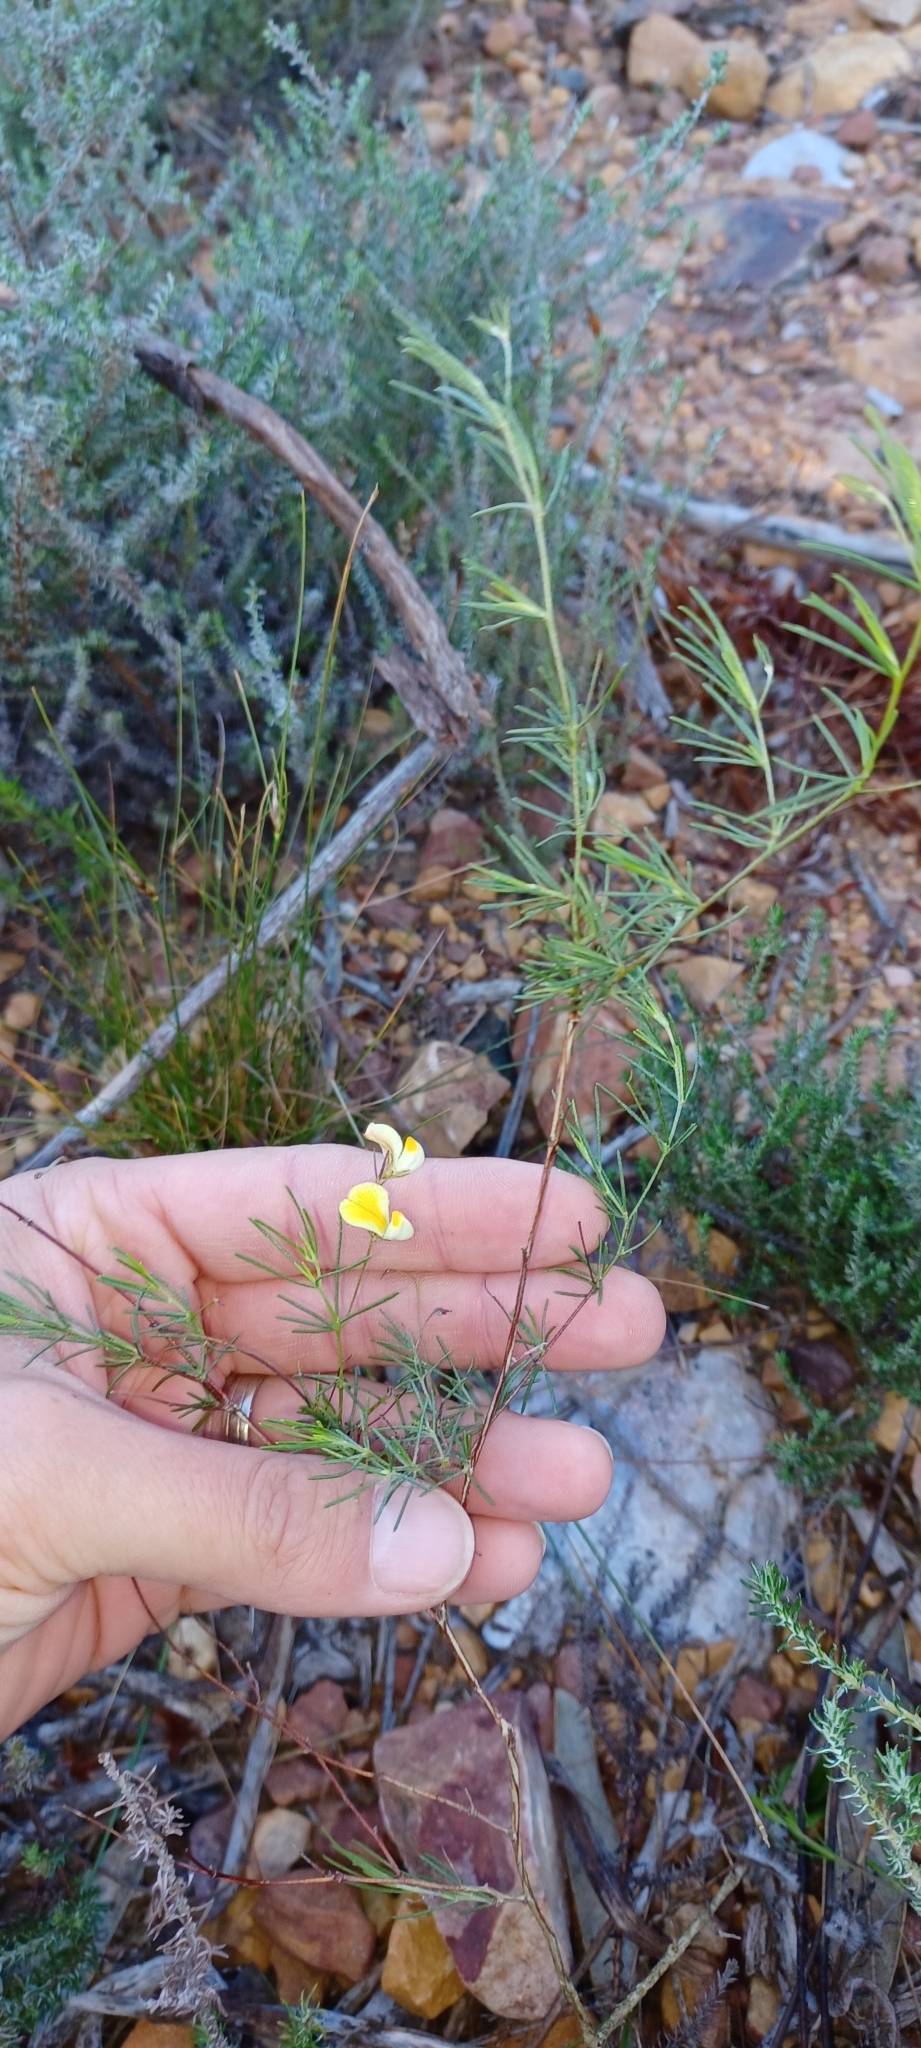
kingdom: Plantae
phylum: Tracheophyta
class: Magnoliopsida
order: Fabales
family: Fabaceae
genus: Aspalathus
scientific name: Aspalathus bracteata
